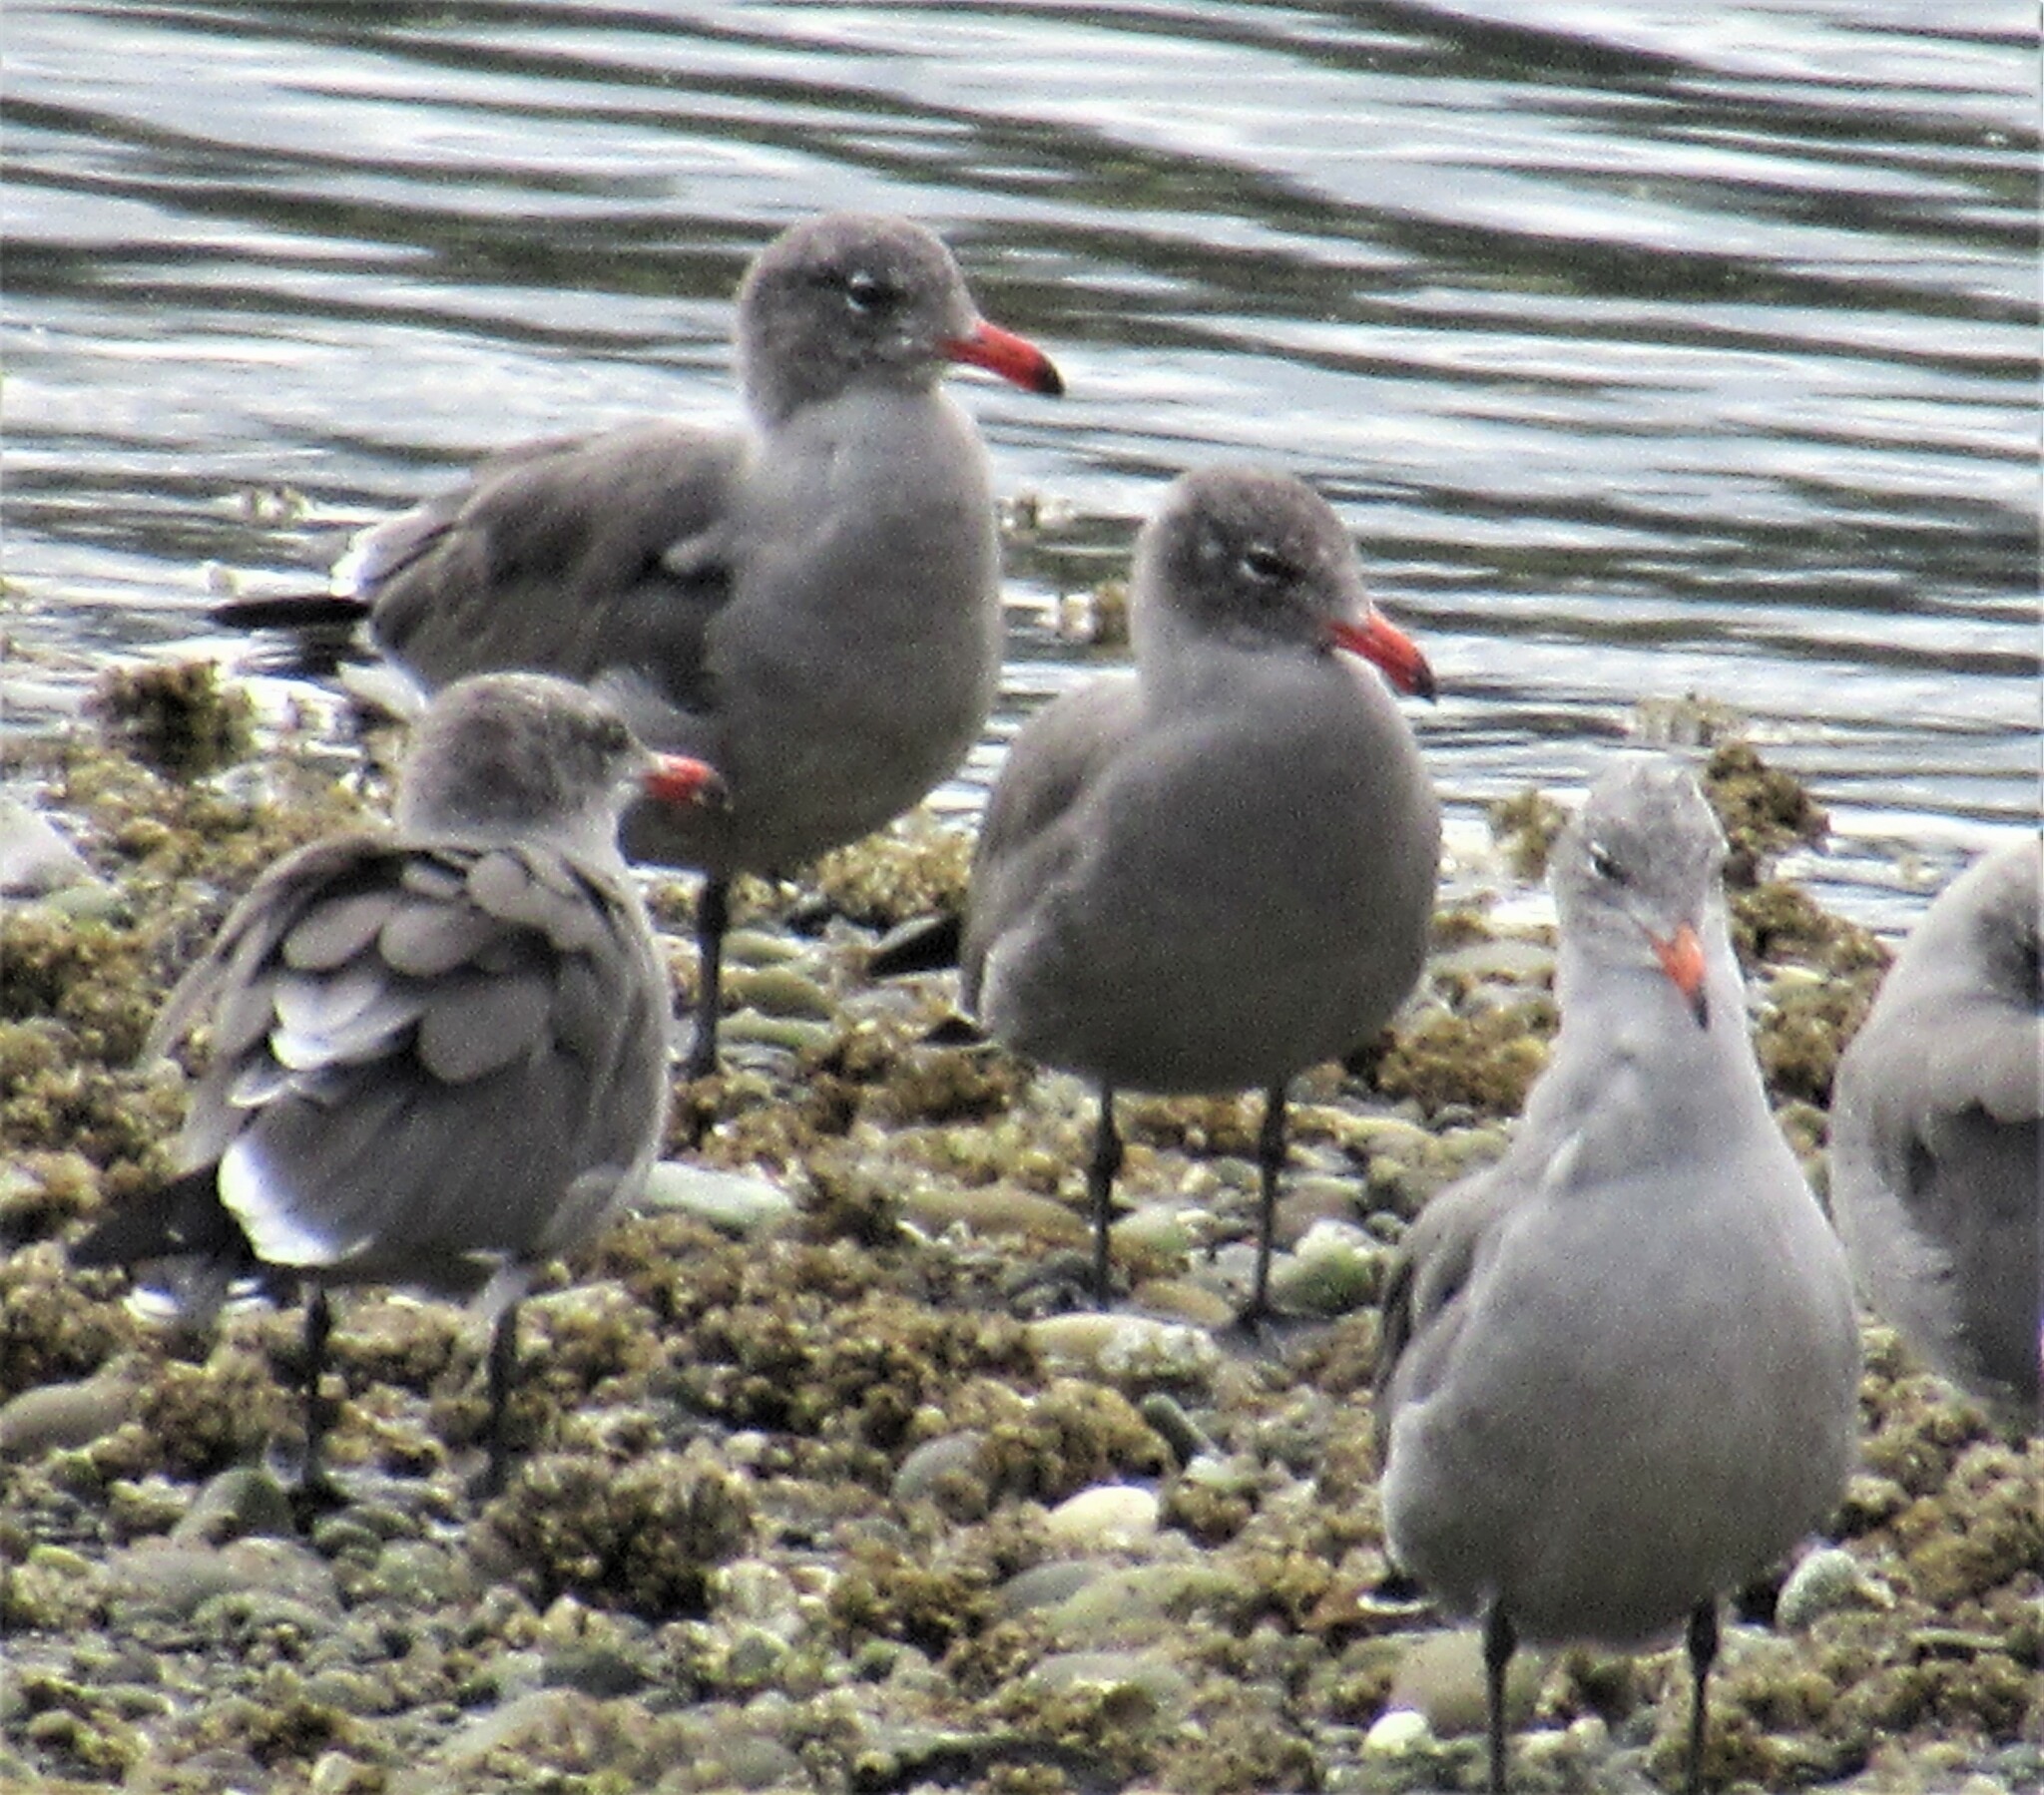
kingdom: Animalia
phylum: Chordata
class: Aves
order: Charadriiformes
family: Laridae
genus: Larus
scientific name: Larus heermanni
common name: Heermann's gull
